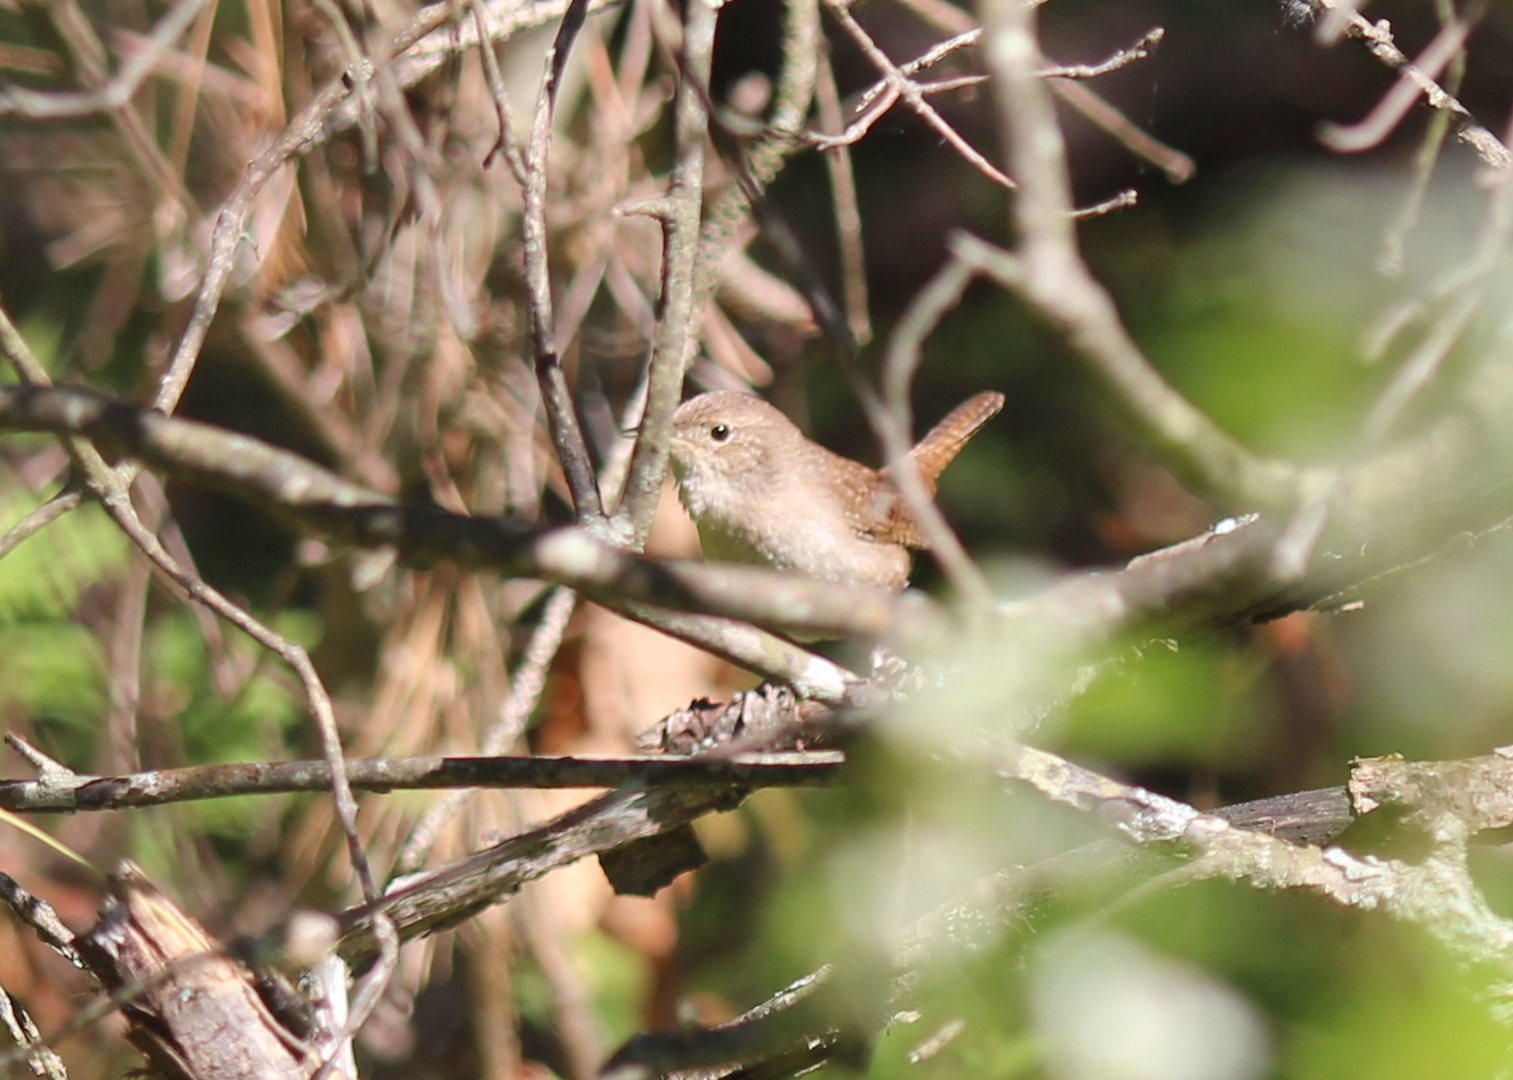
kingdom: Animalia
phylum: Chordata
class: Aves
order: Passeriformes
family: Troglodytidae
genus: Troglodytes
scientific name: Troglodytes aedon
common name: House wren
